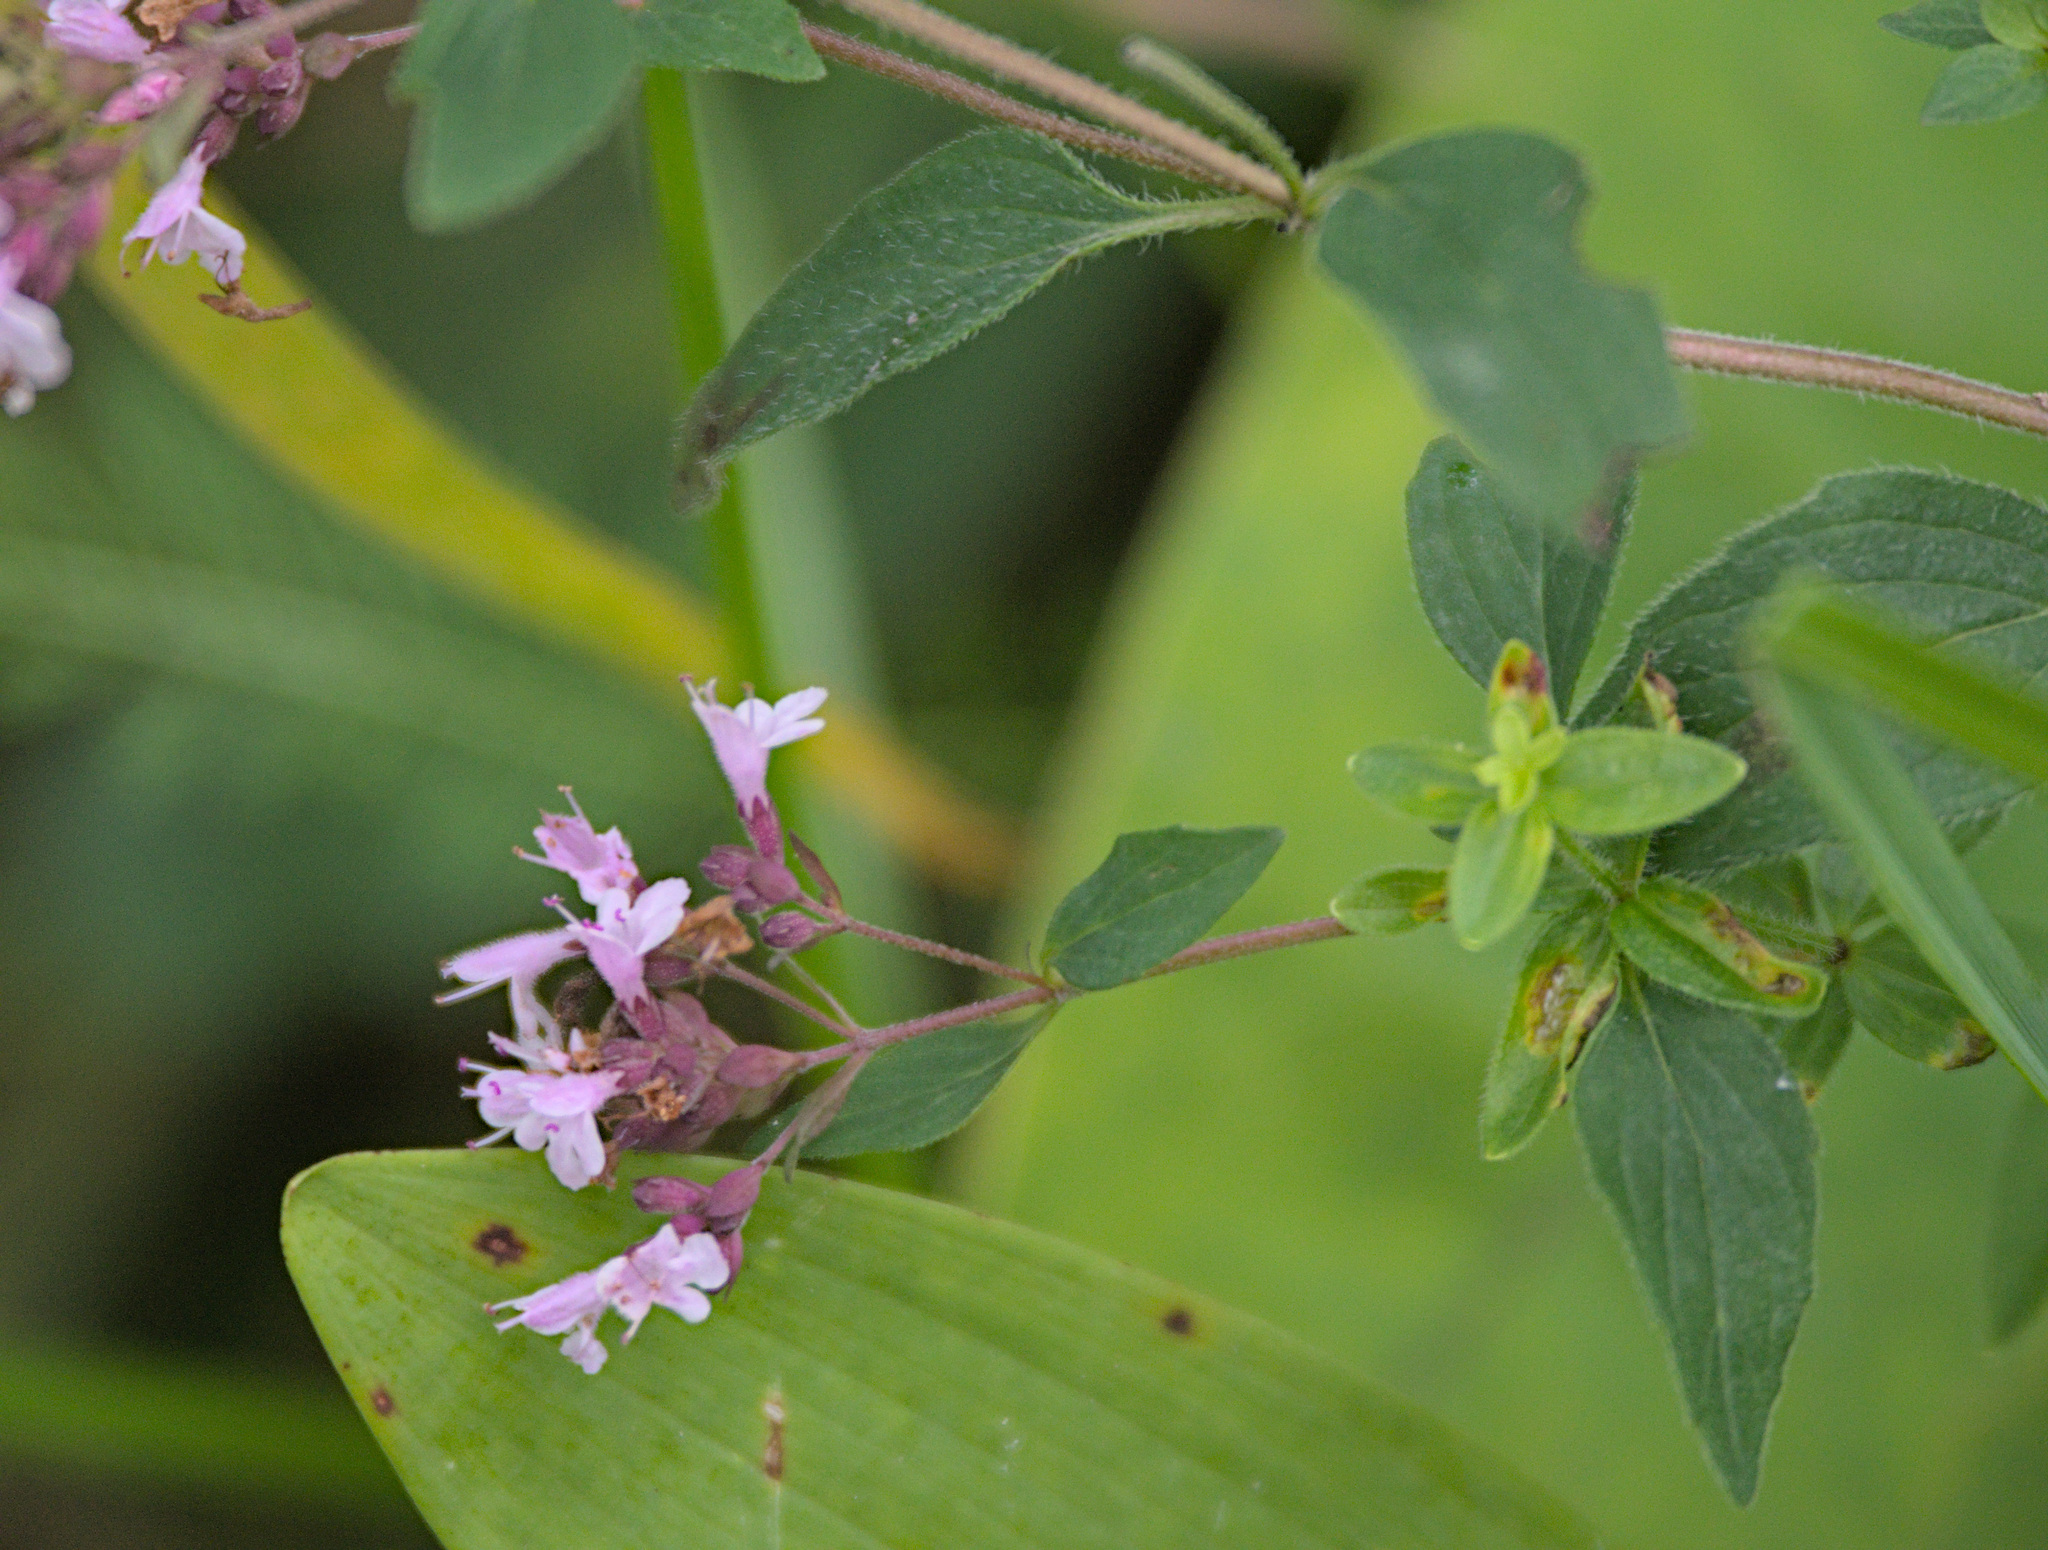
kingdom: Plantae
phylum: Tracheophyta
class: Magnoliopsida
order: Lamiales
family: Lamiaceae
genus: Origanum
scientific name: Origanum vulgare
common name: Wild marjoram
